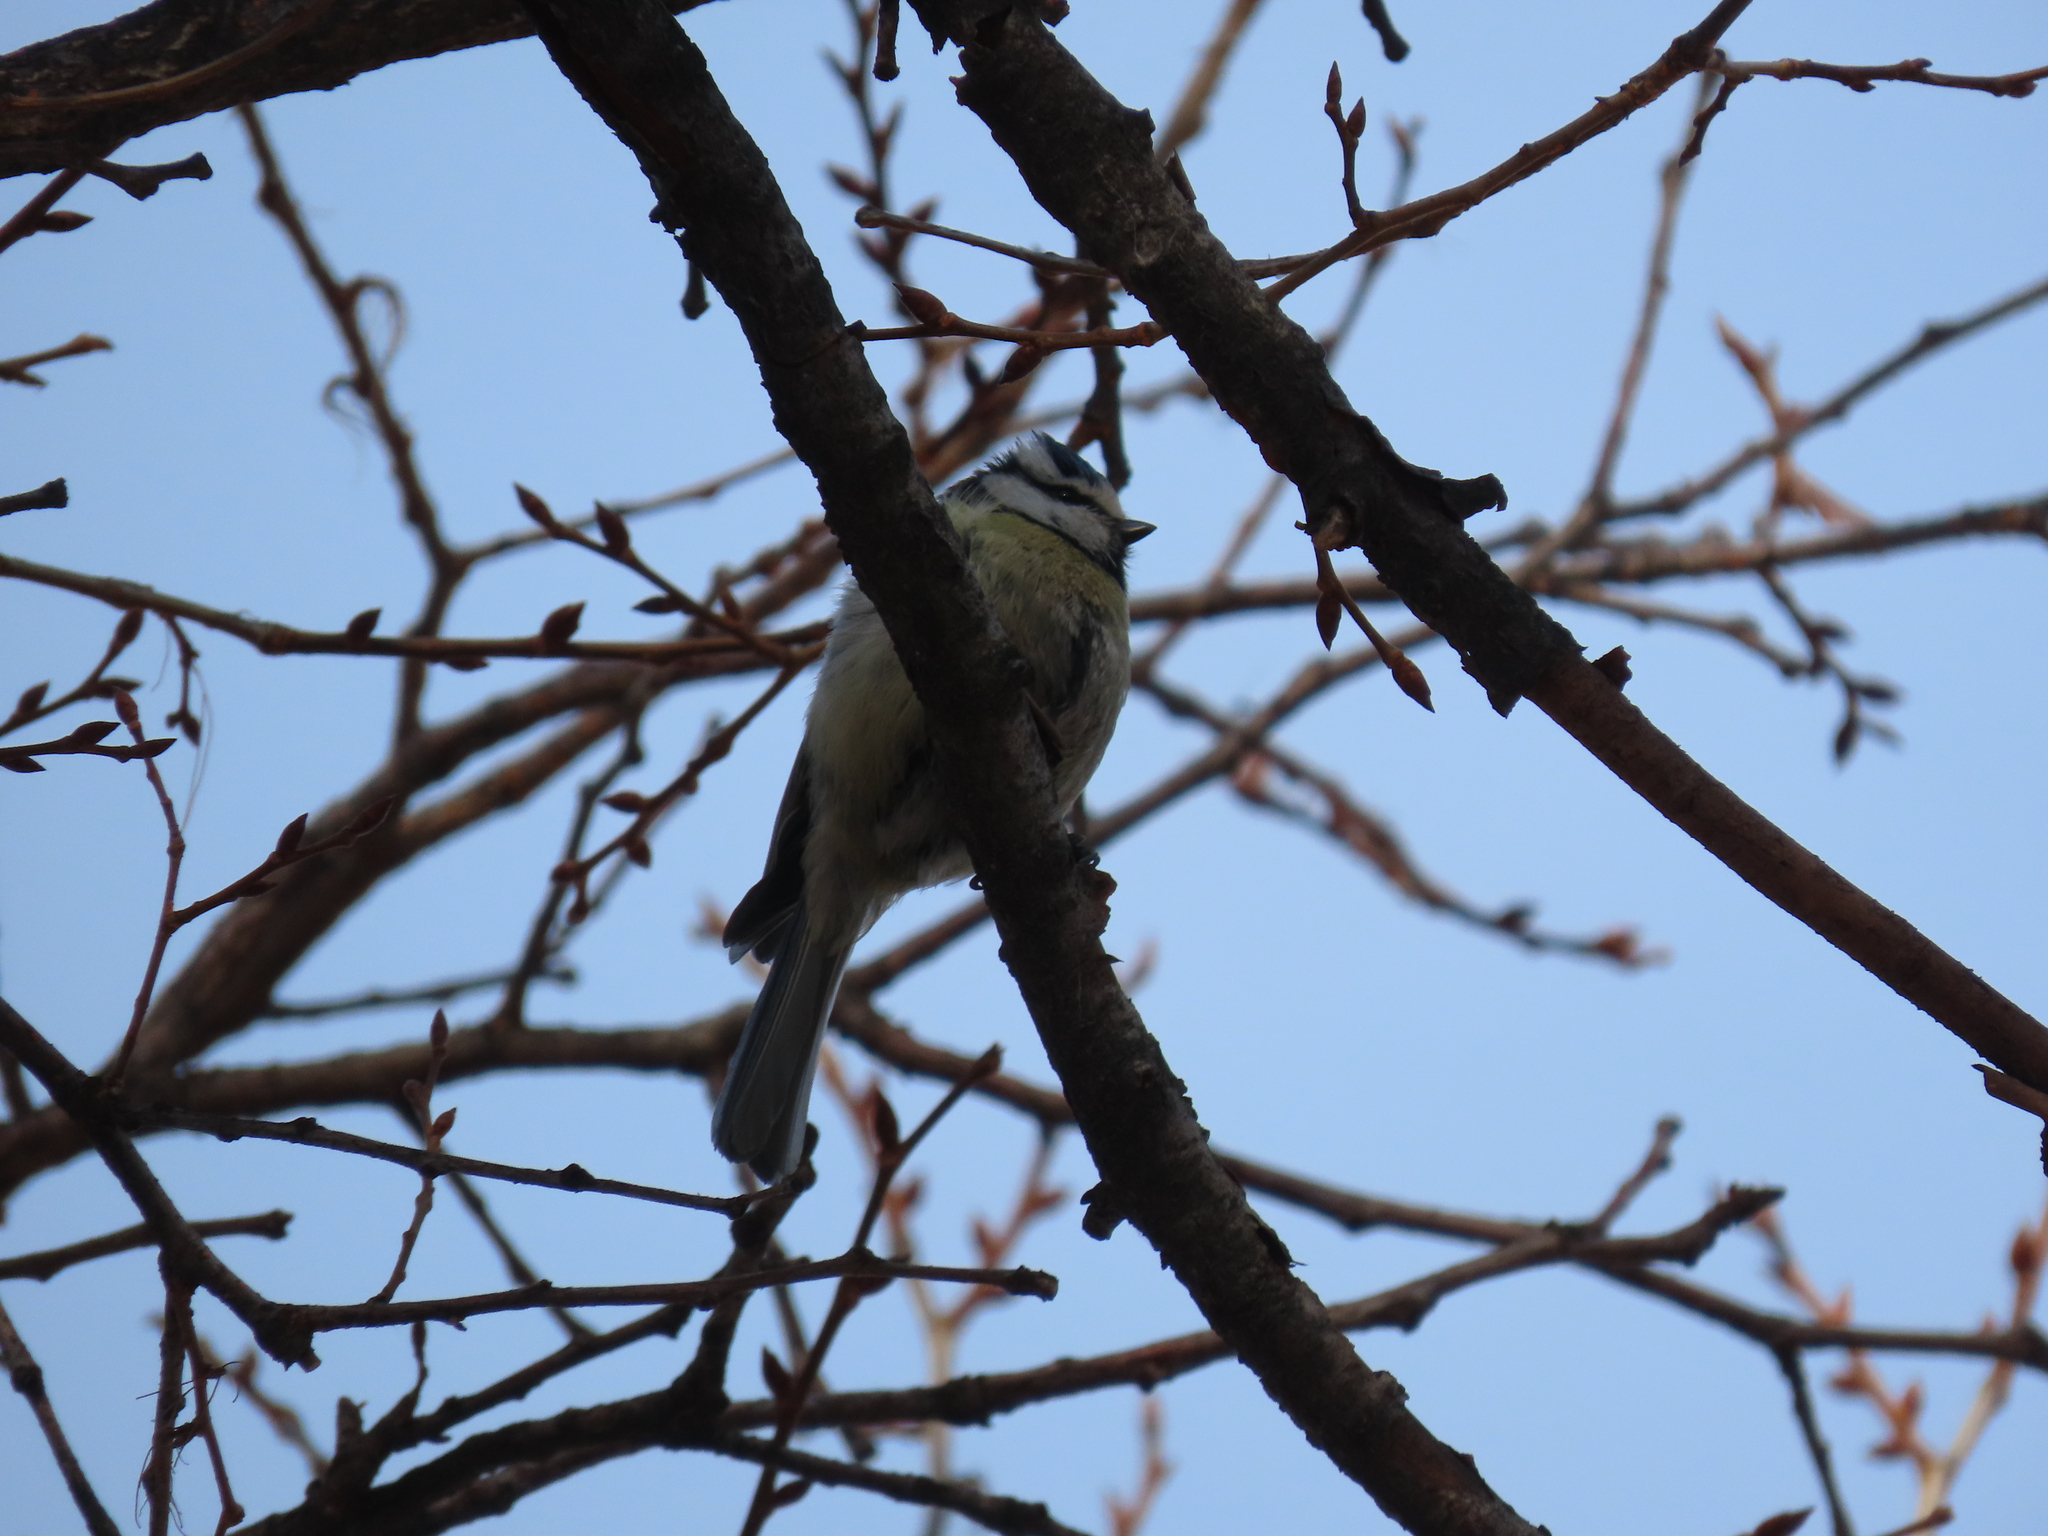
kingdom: Animalia
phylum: Chordata
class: Aves
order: Passeriformes
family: Paridae
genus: Cyanistes
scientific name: Cyanistes caeruleus
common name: Eurasian blue tit
